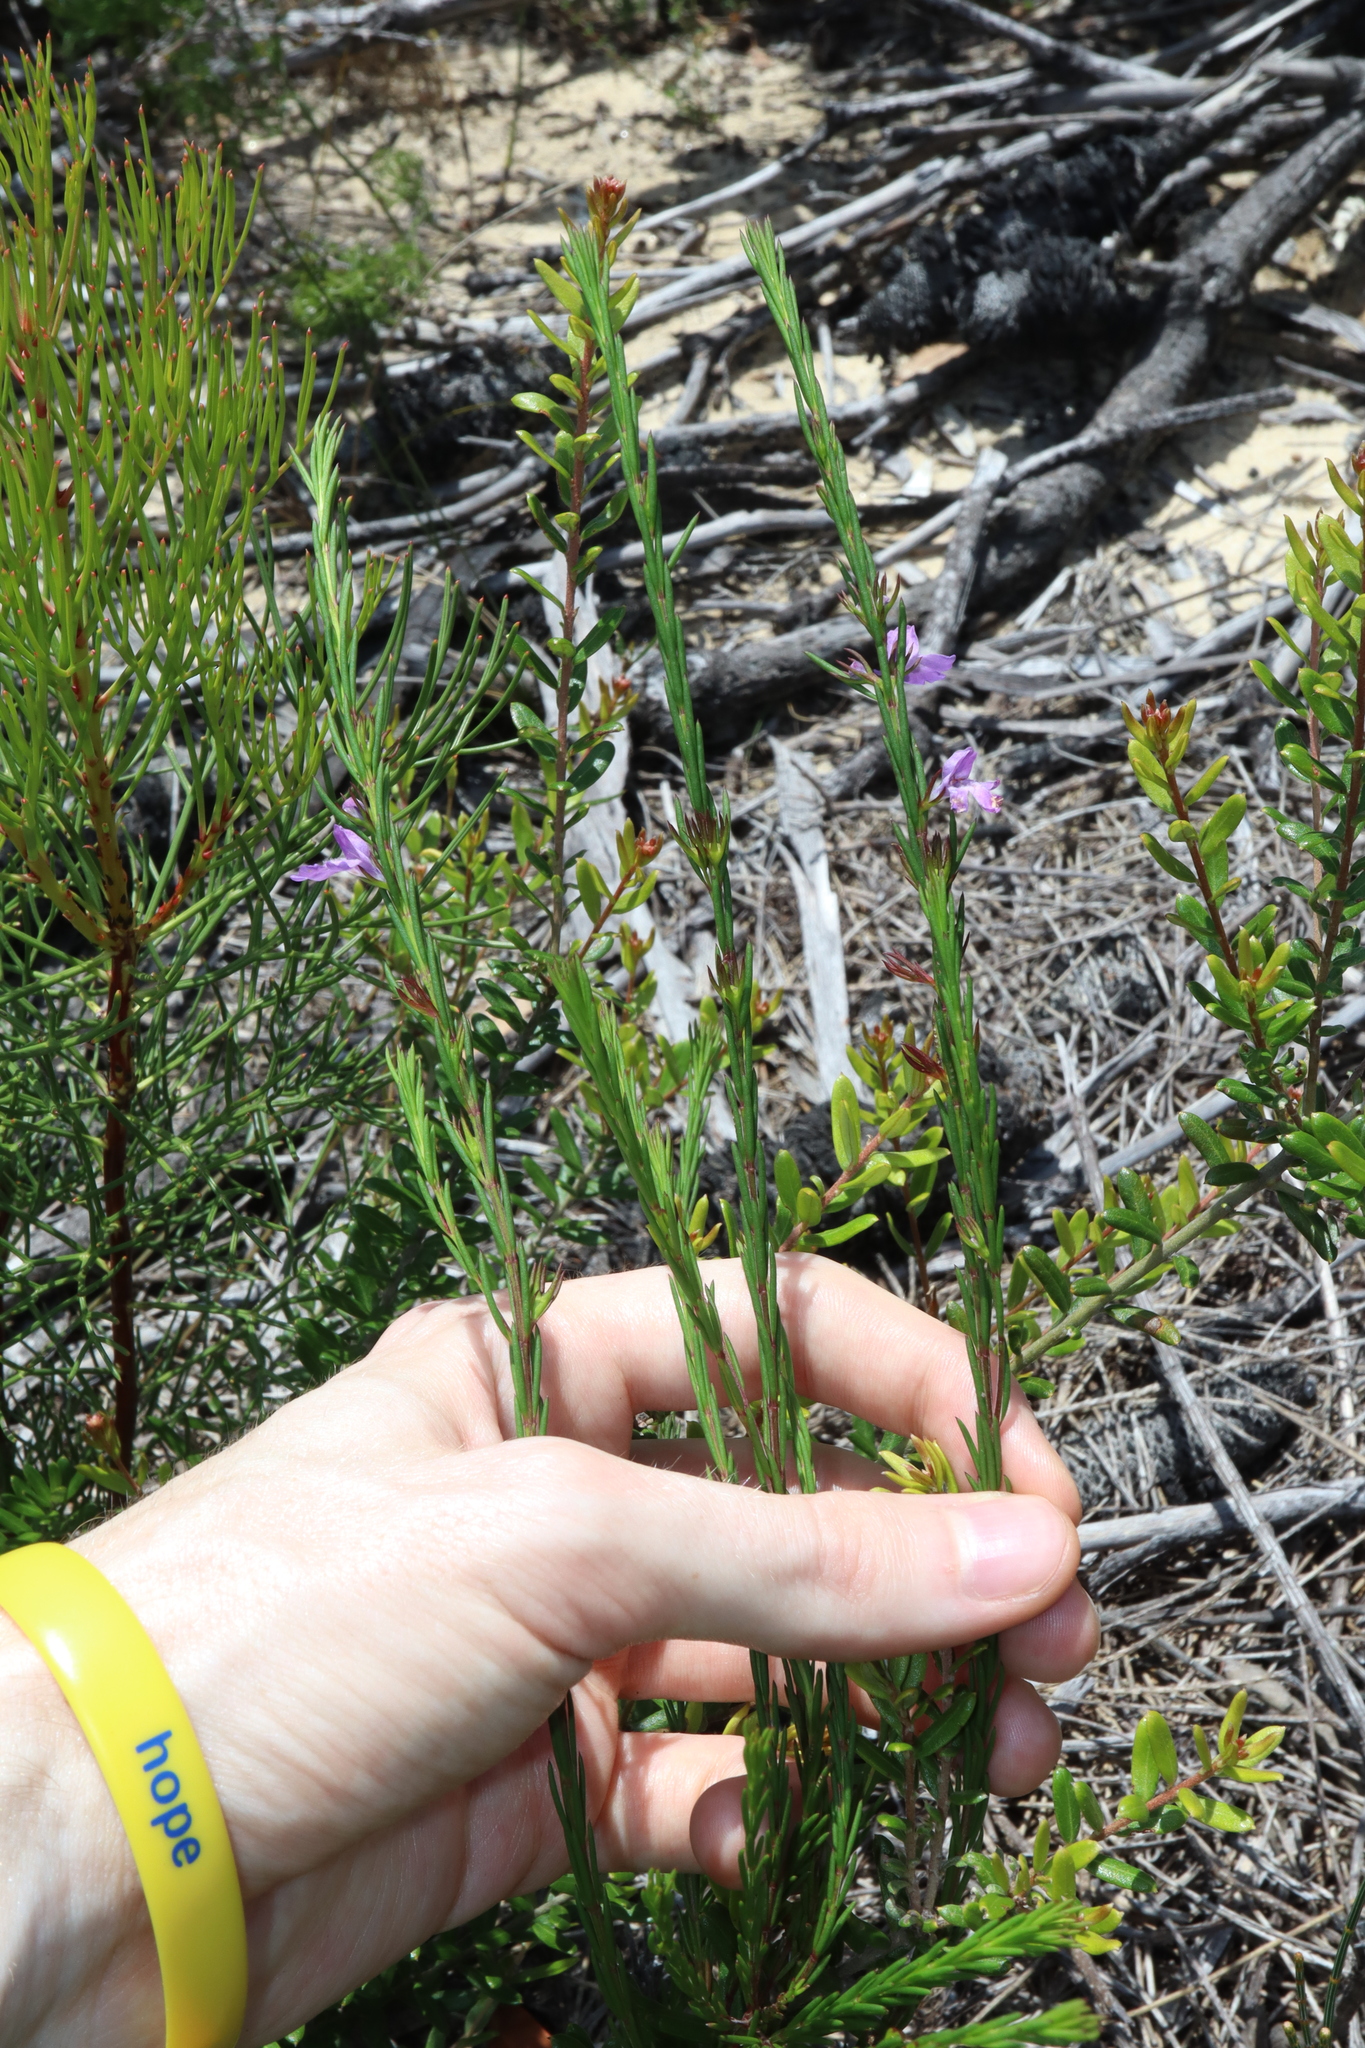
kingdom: Plantae
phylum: Tracheophyta
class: Magnoliopsida
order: Lamiales
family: Lamiaceae
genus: Hemigenia
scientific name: Hemigenia purpurea
